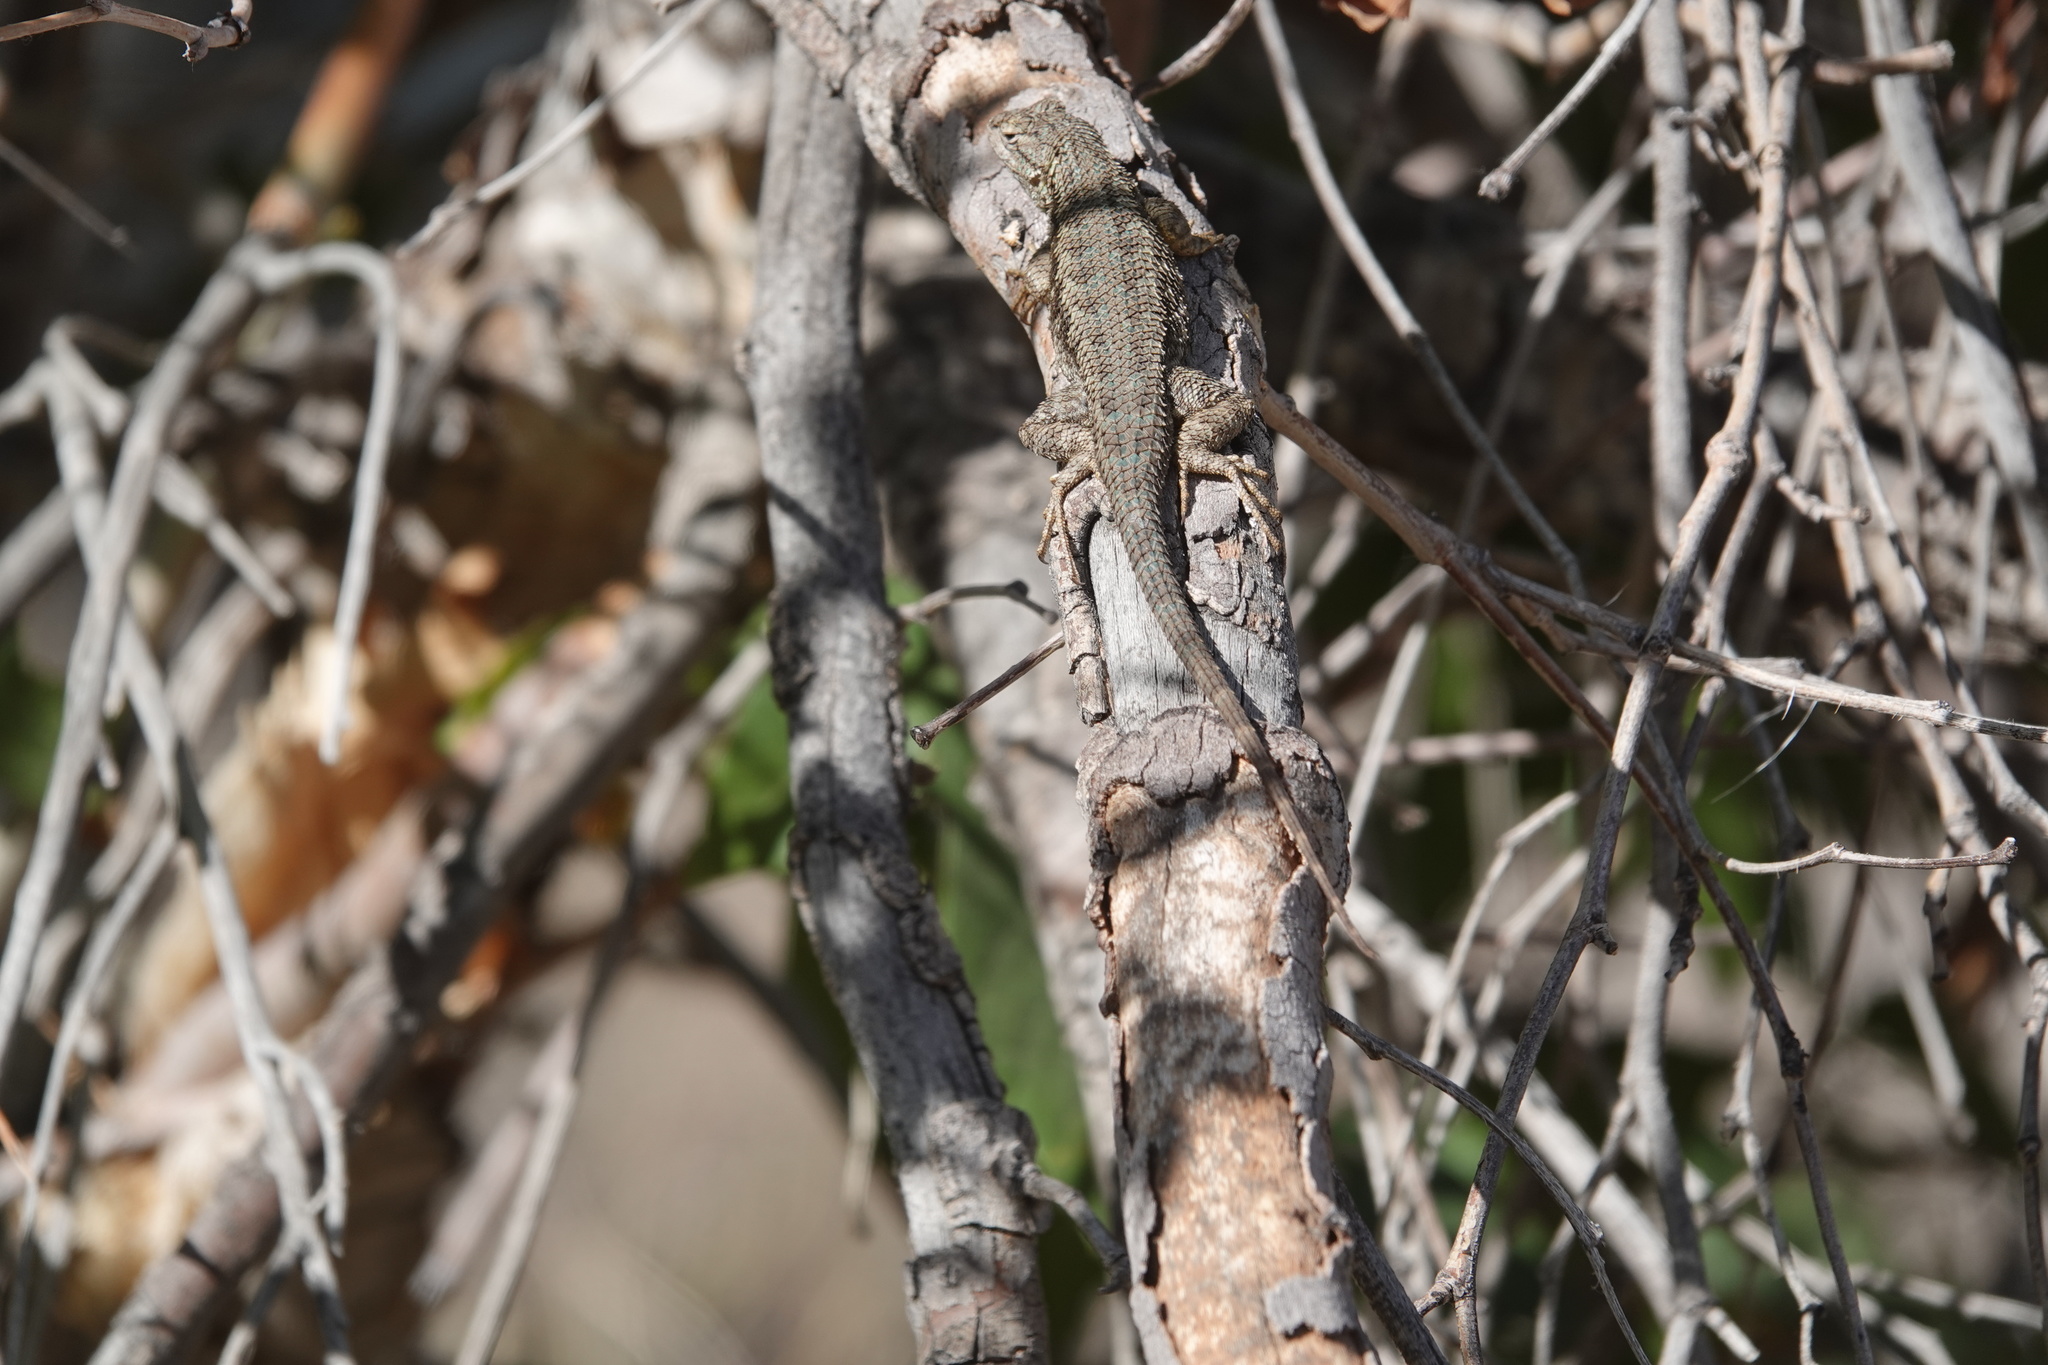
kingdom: Animalia
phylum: Chordata
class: Squamata
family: Phrynosomatidae
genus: Sceloporus
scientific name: Sceloporus occidentalis
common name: Western fence lizard
